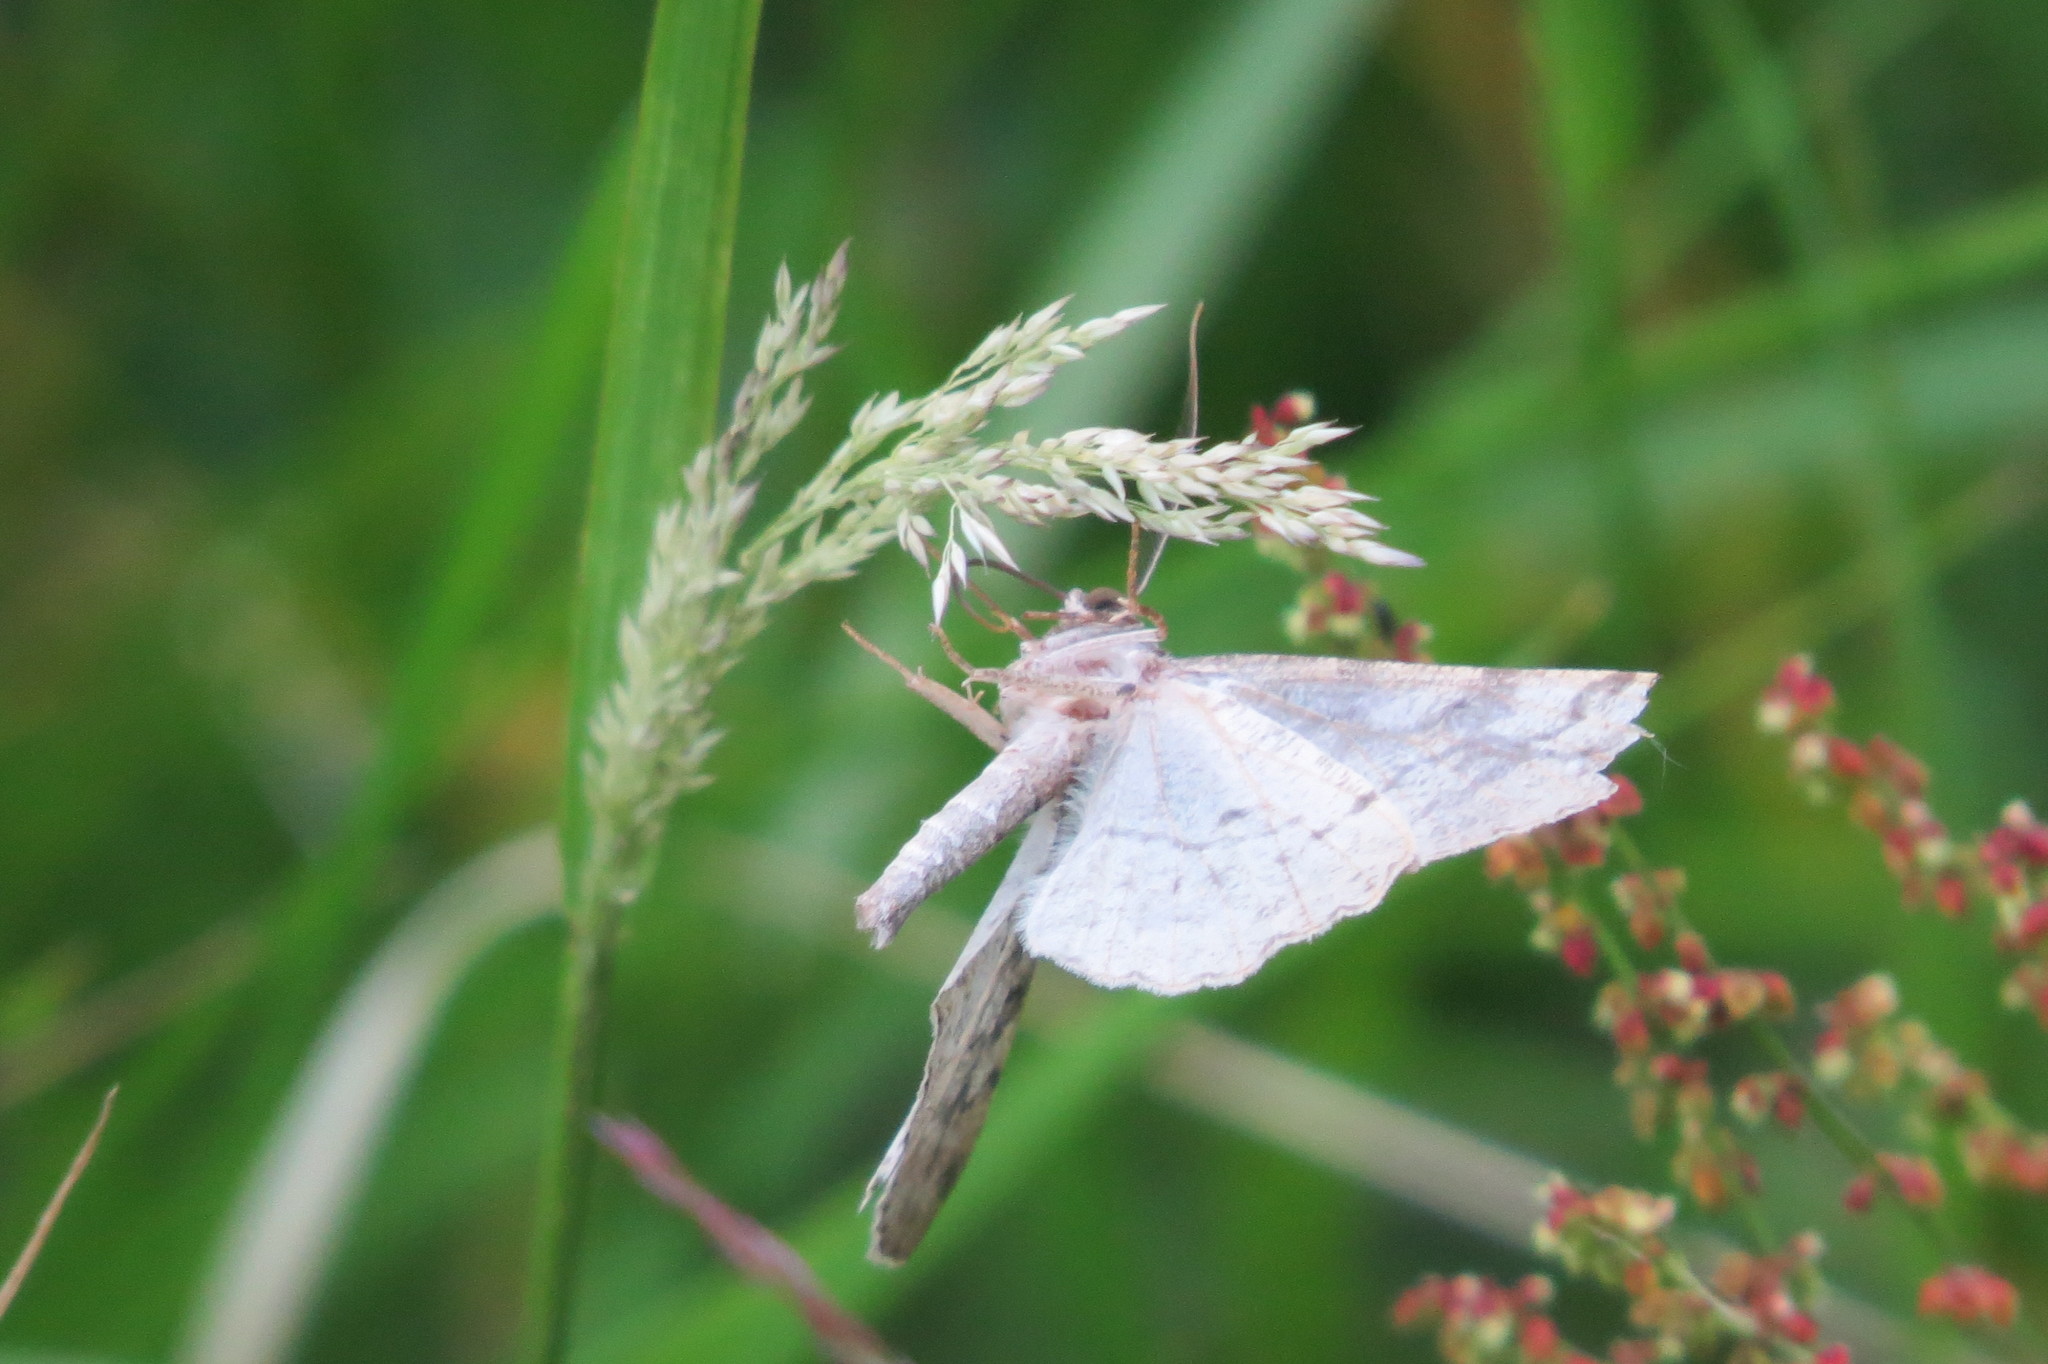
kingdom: Animalia
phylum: Arthropoda
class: Insecta
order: Lepidoptera
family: Geometridae
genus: Alcis
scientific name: Alcis repandata
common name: Mottled beauty
